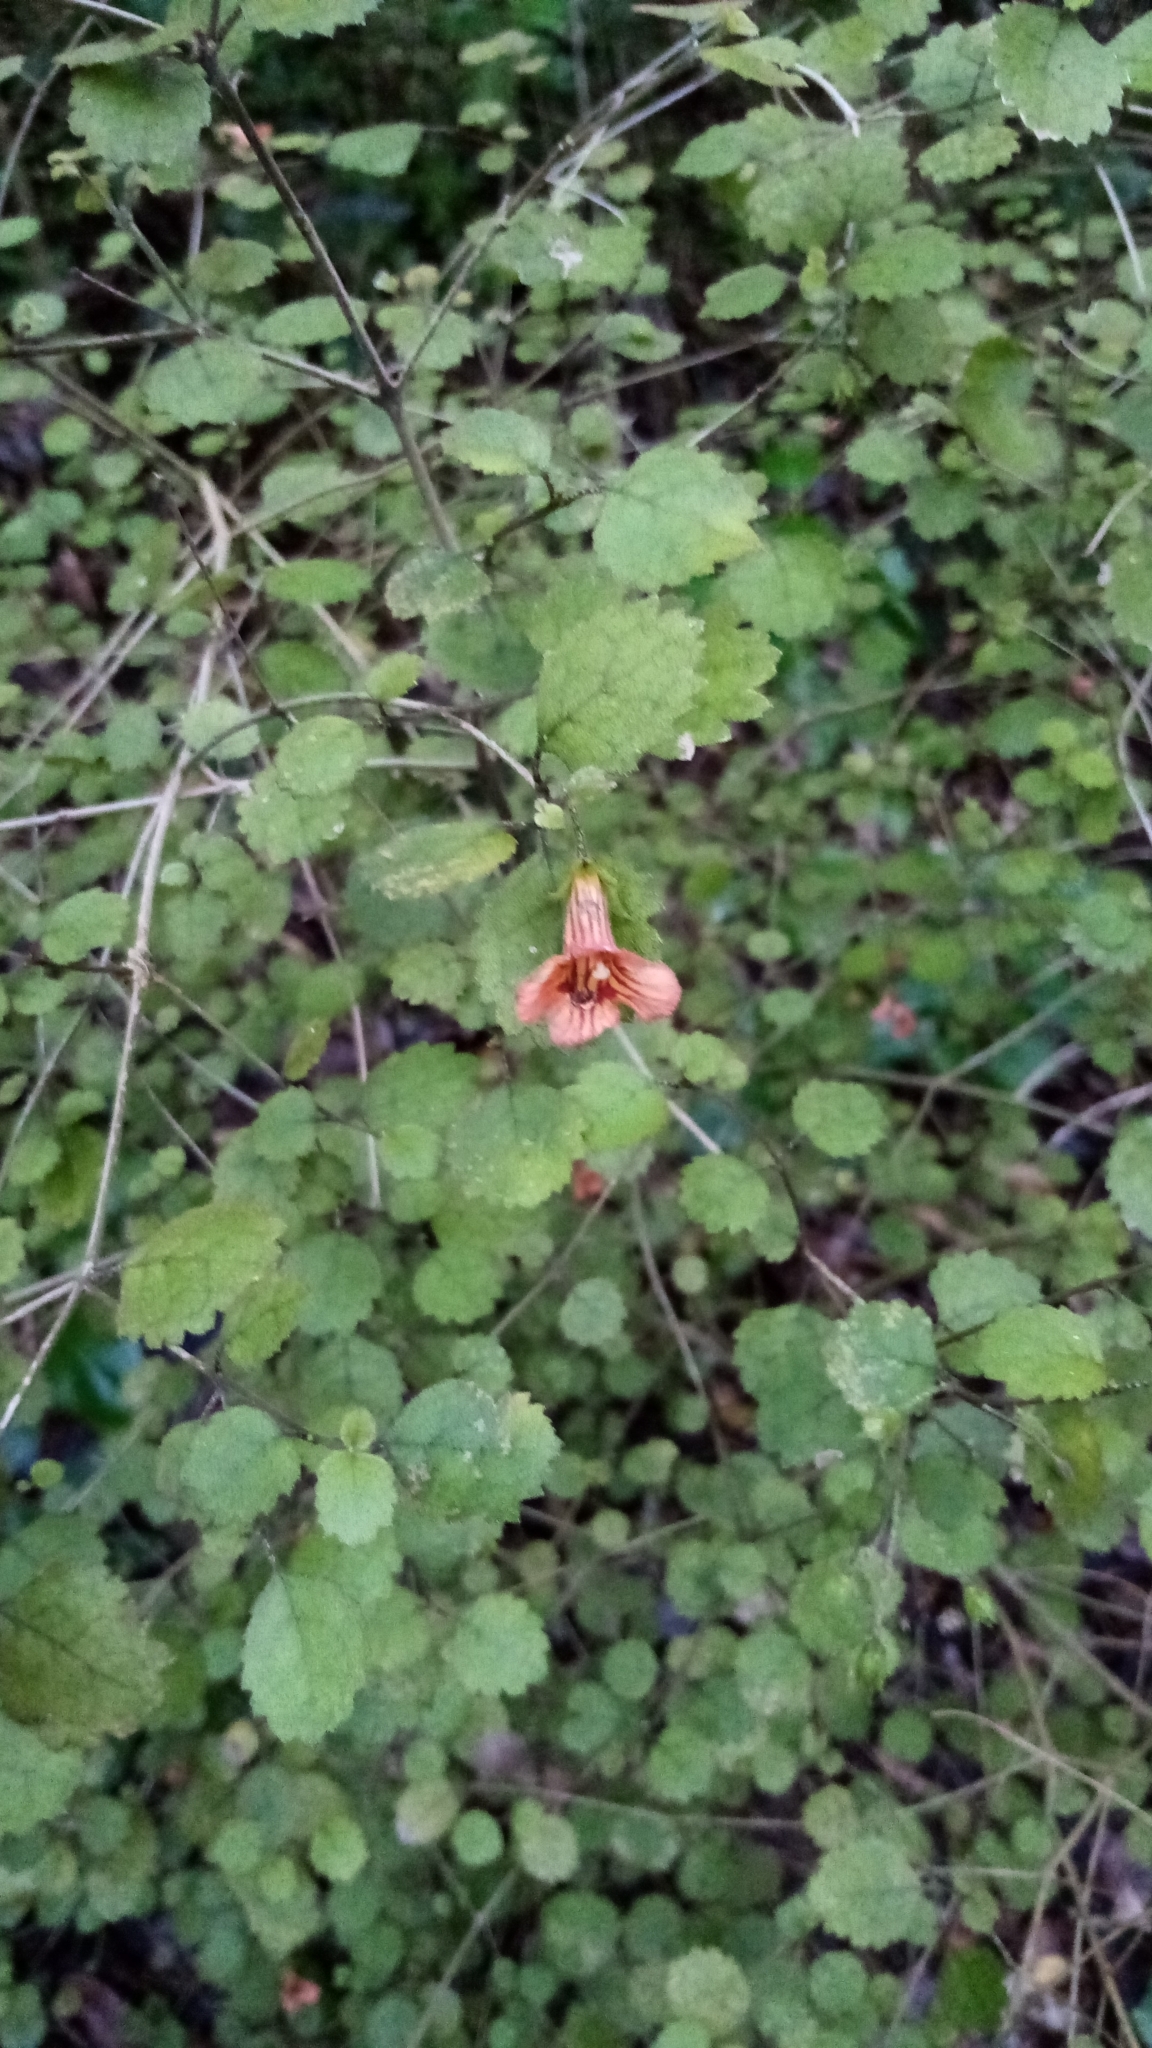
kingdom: Plantae
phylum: Tracheophyta
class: Magnoliopsida
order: Lamiales
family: Gesneriaceae
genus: Rhabdothamnus
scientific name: Rhabdothamnus solandri
